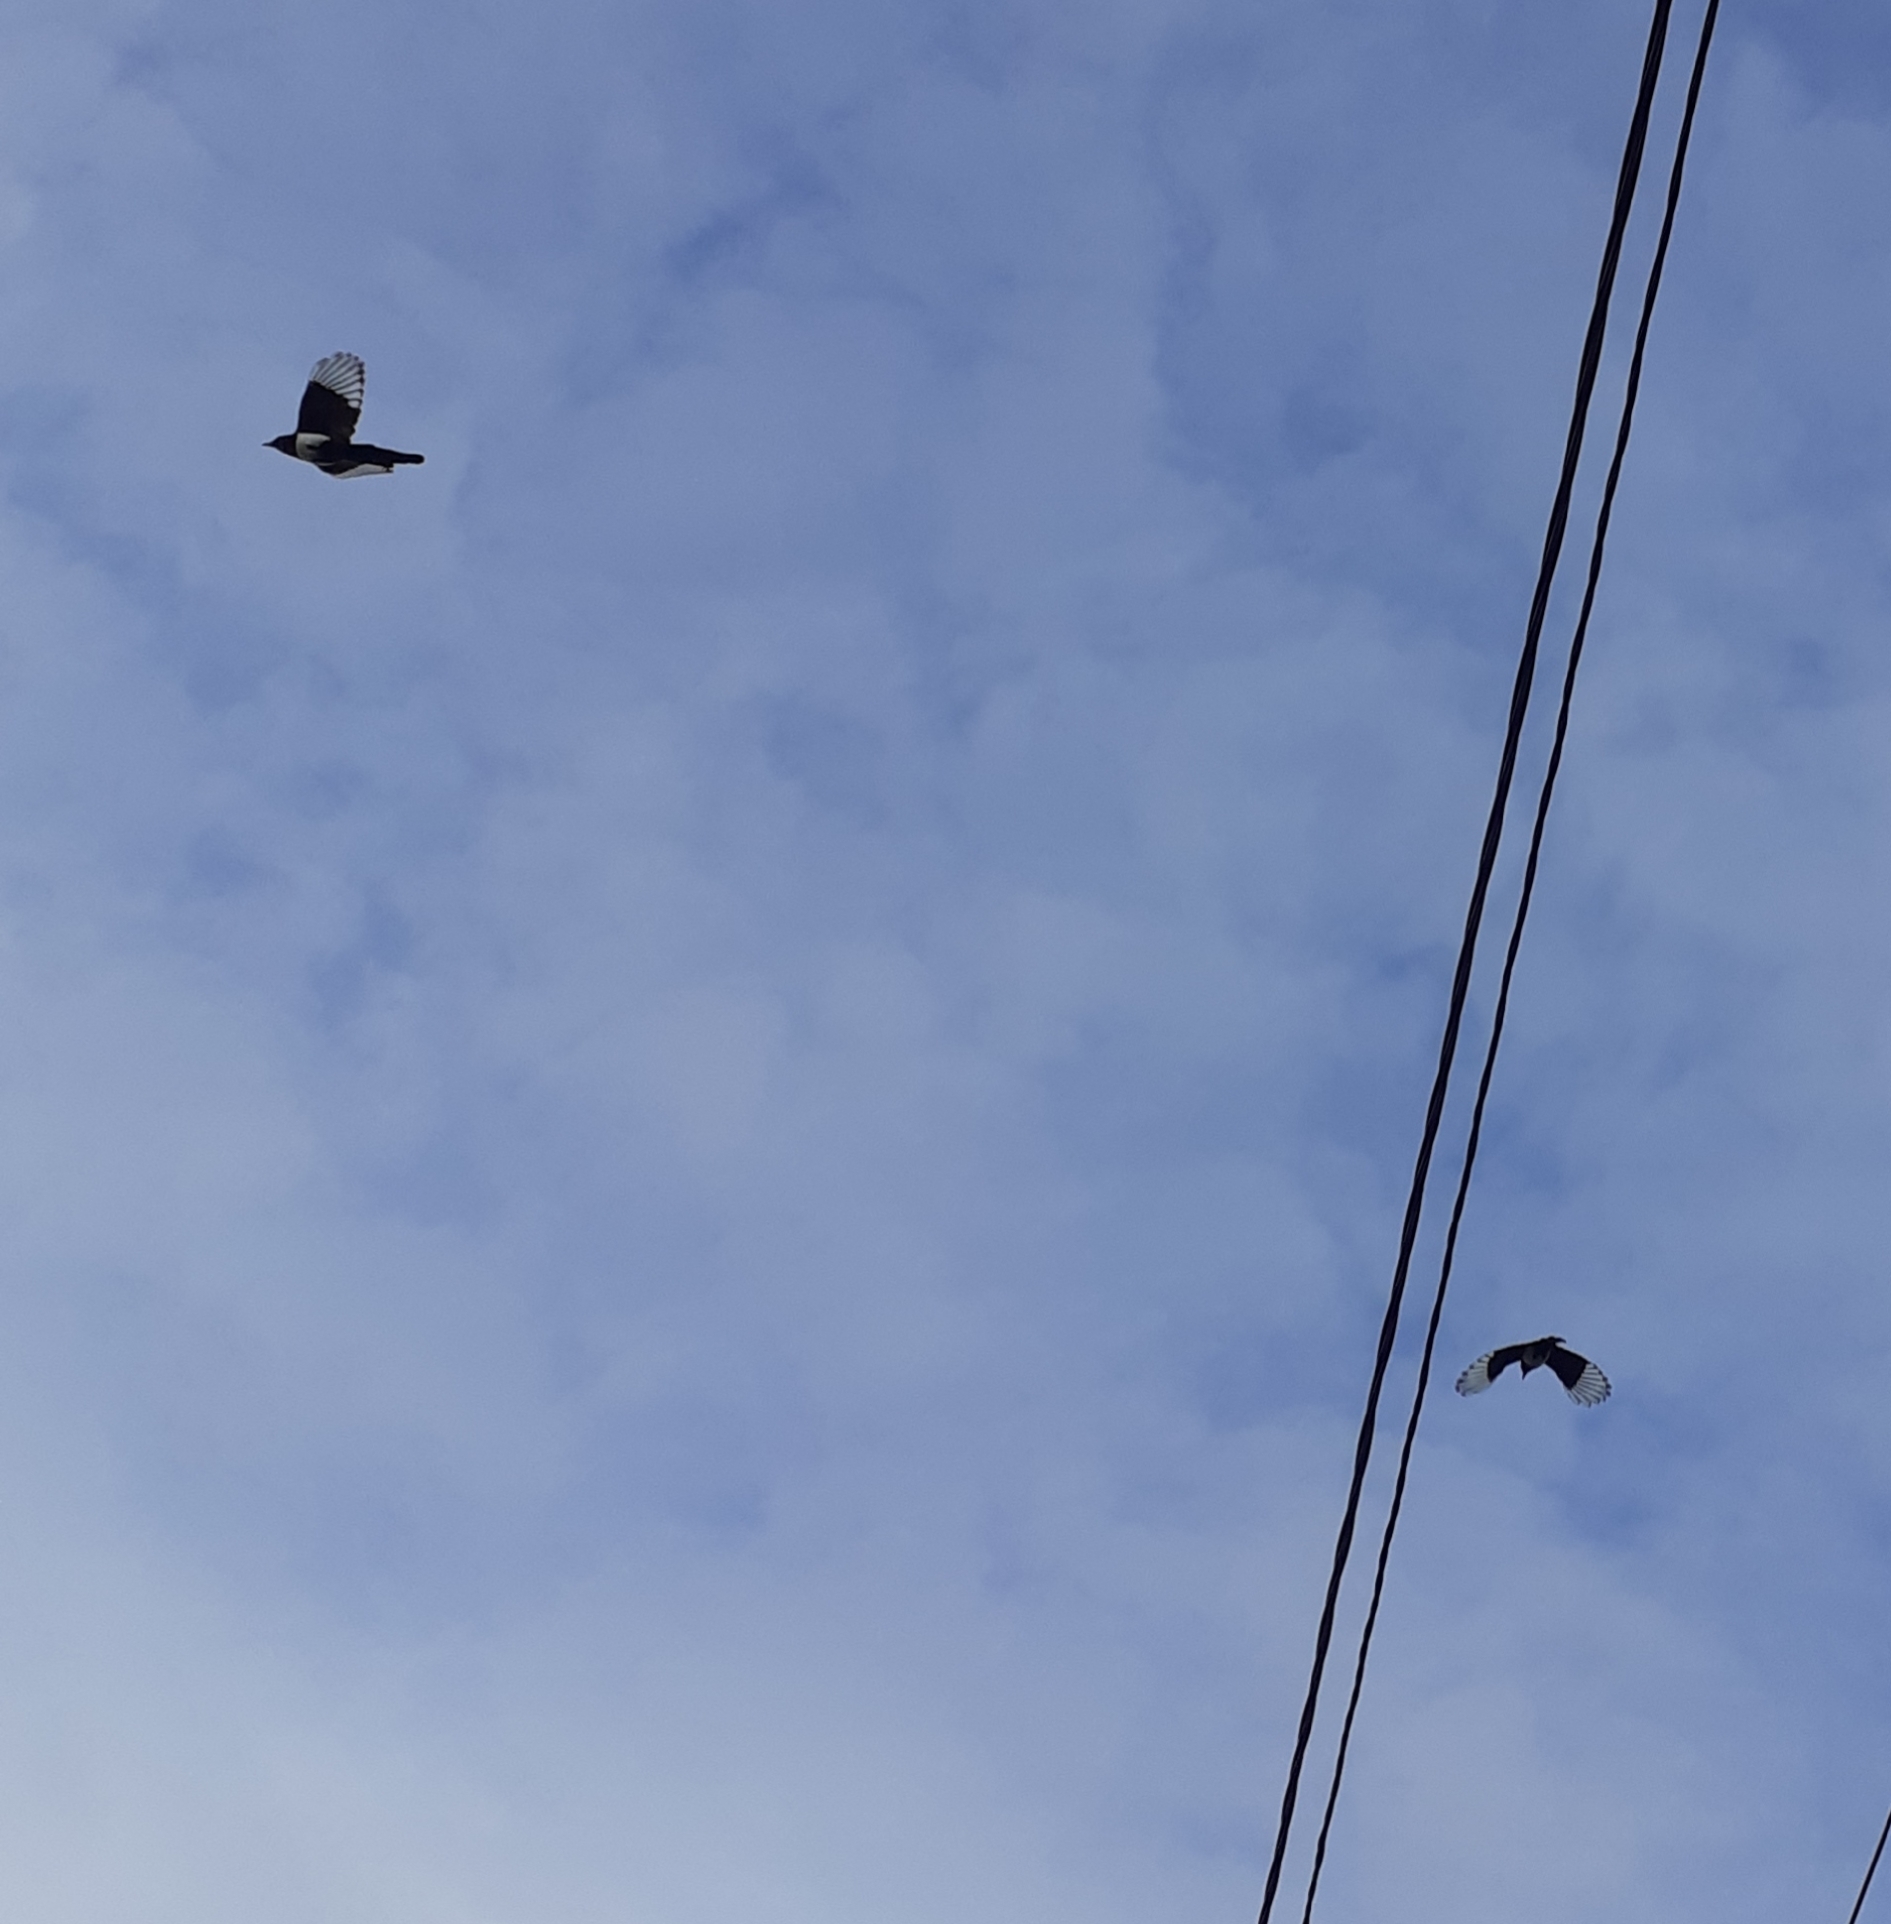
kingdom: Animalia
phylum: Chordata
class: Aves
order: Passeriformes
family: Corvidae
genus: Pica
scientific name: Pica pica
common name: Eurasian magpie
